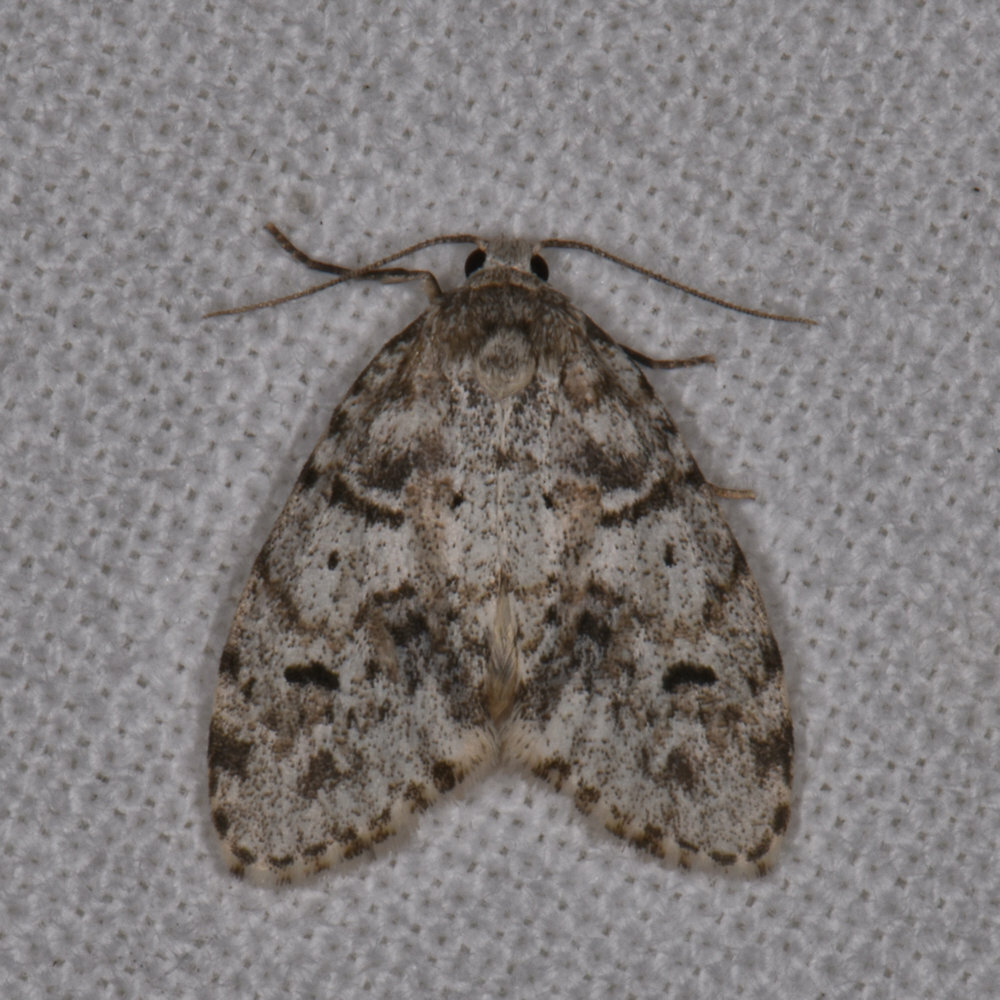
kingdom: Animalia
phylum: Arthropoda
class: Insecta
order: Lepidoptera
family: Erebidae
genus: Clemensia
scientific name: Clemensia albata
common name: Little white lichen moth
